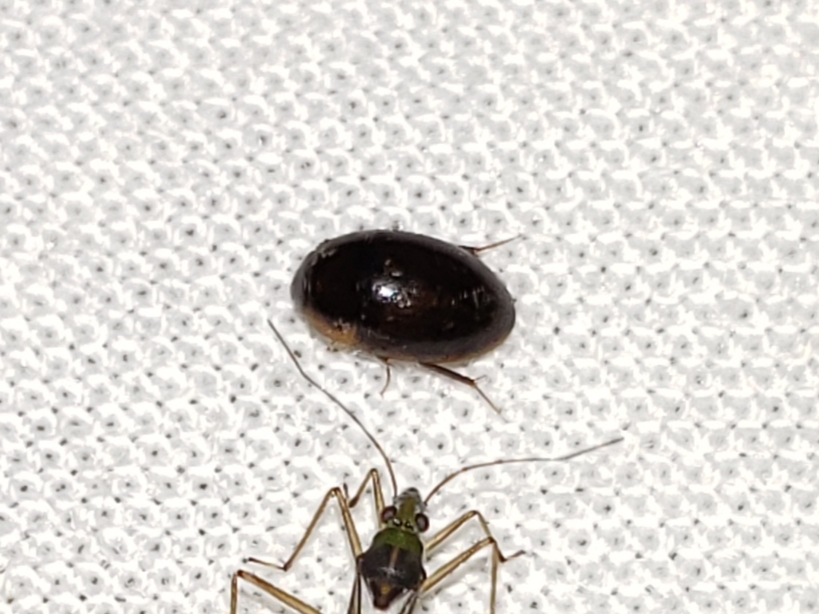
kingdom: Animalia
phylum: Arthropoda
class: Insecta
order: Coleoptera
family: Hydrophilidae
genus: Enochrus
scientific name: Enochrus
